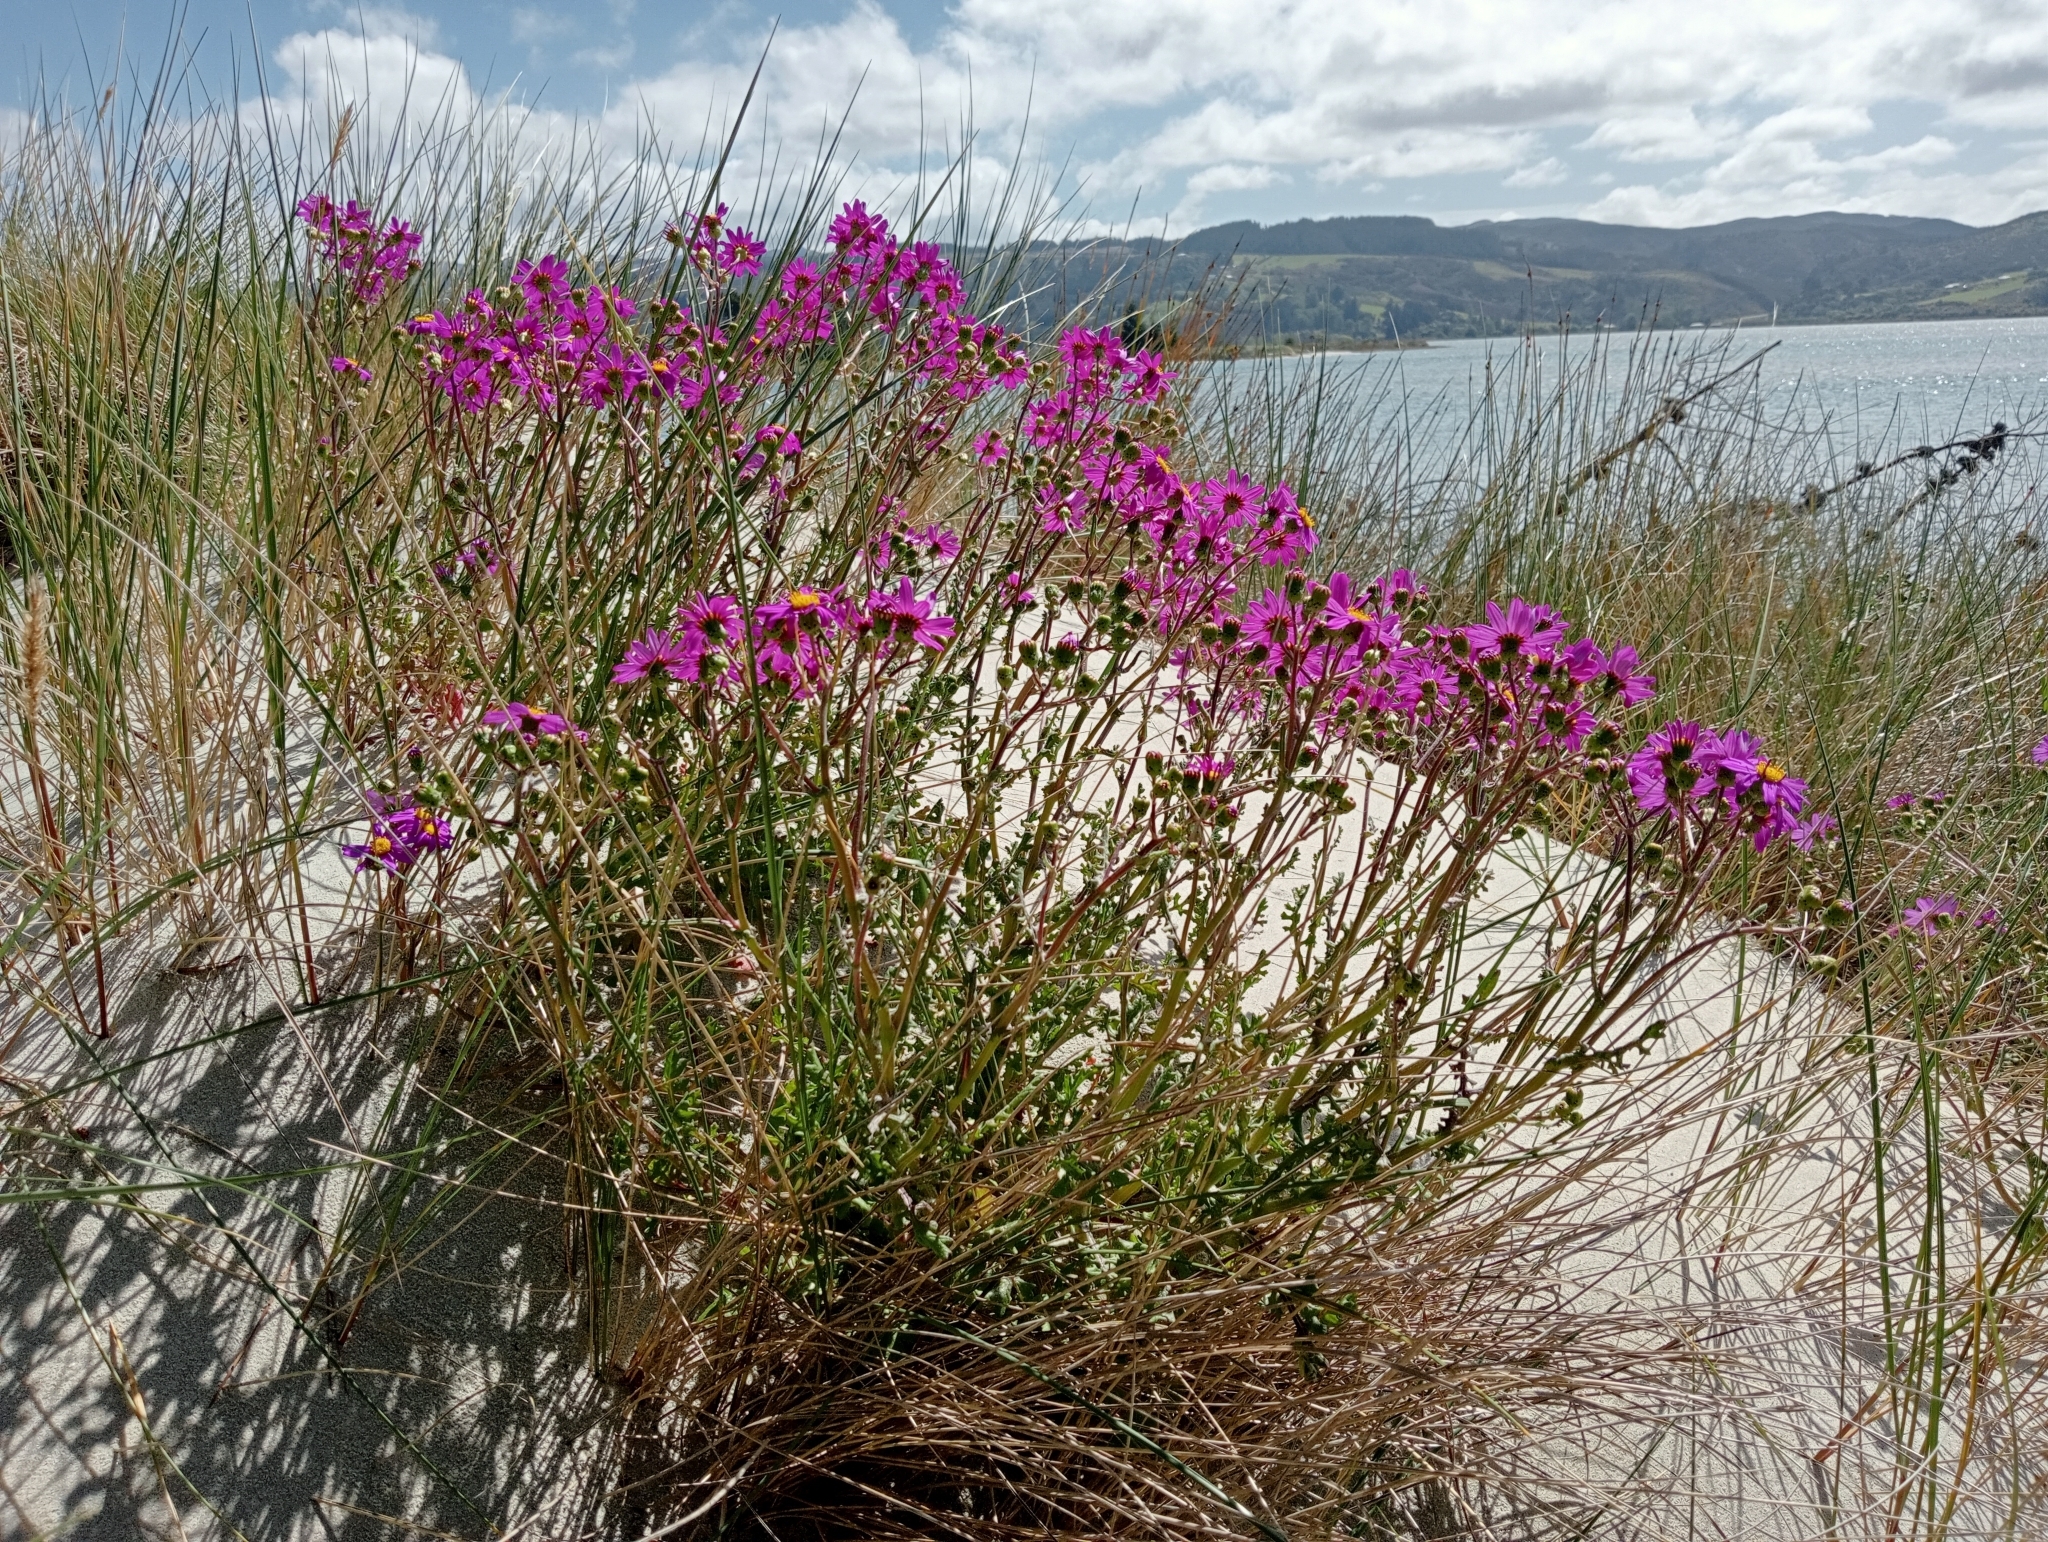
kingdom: Plantae
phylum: Tracheophyta
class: Magnoliopsida
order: Asterales
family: Asteraceae
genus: Senecio
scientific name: Senecio elegans
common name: Purple groundsel
